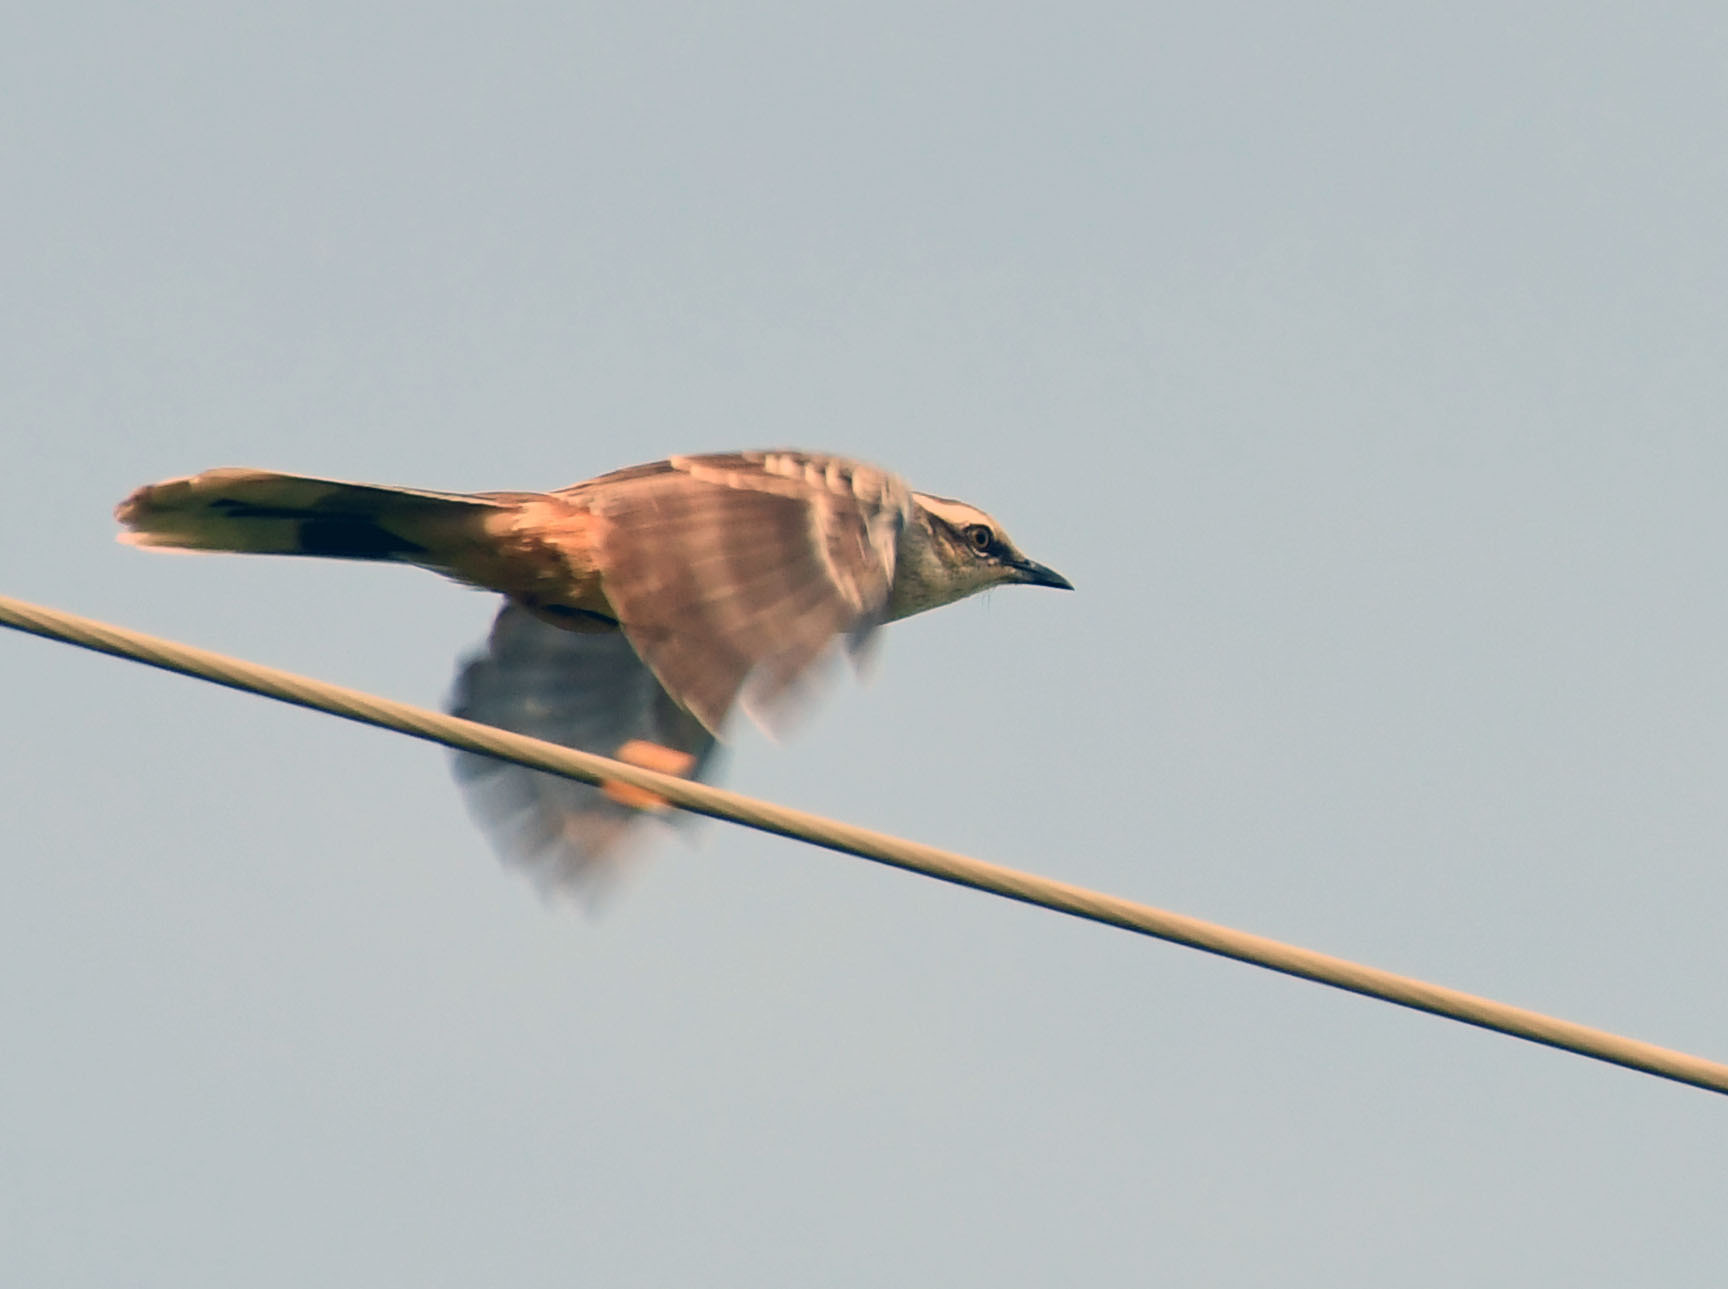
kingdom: Animalia
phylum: Chordata
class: Aves
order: Passeriformes
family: Mimidae
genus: Mimus
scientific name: Mimus saturninus
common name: Chalk-browed mockingbird
